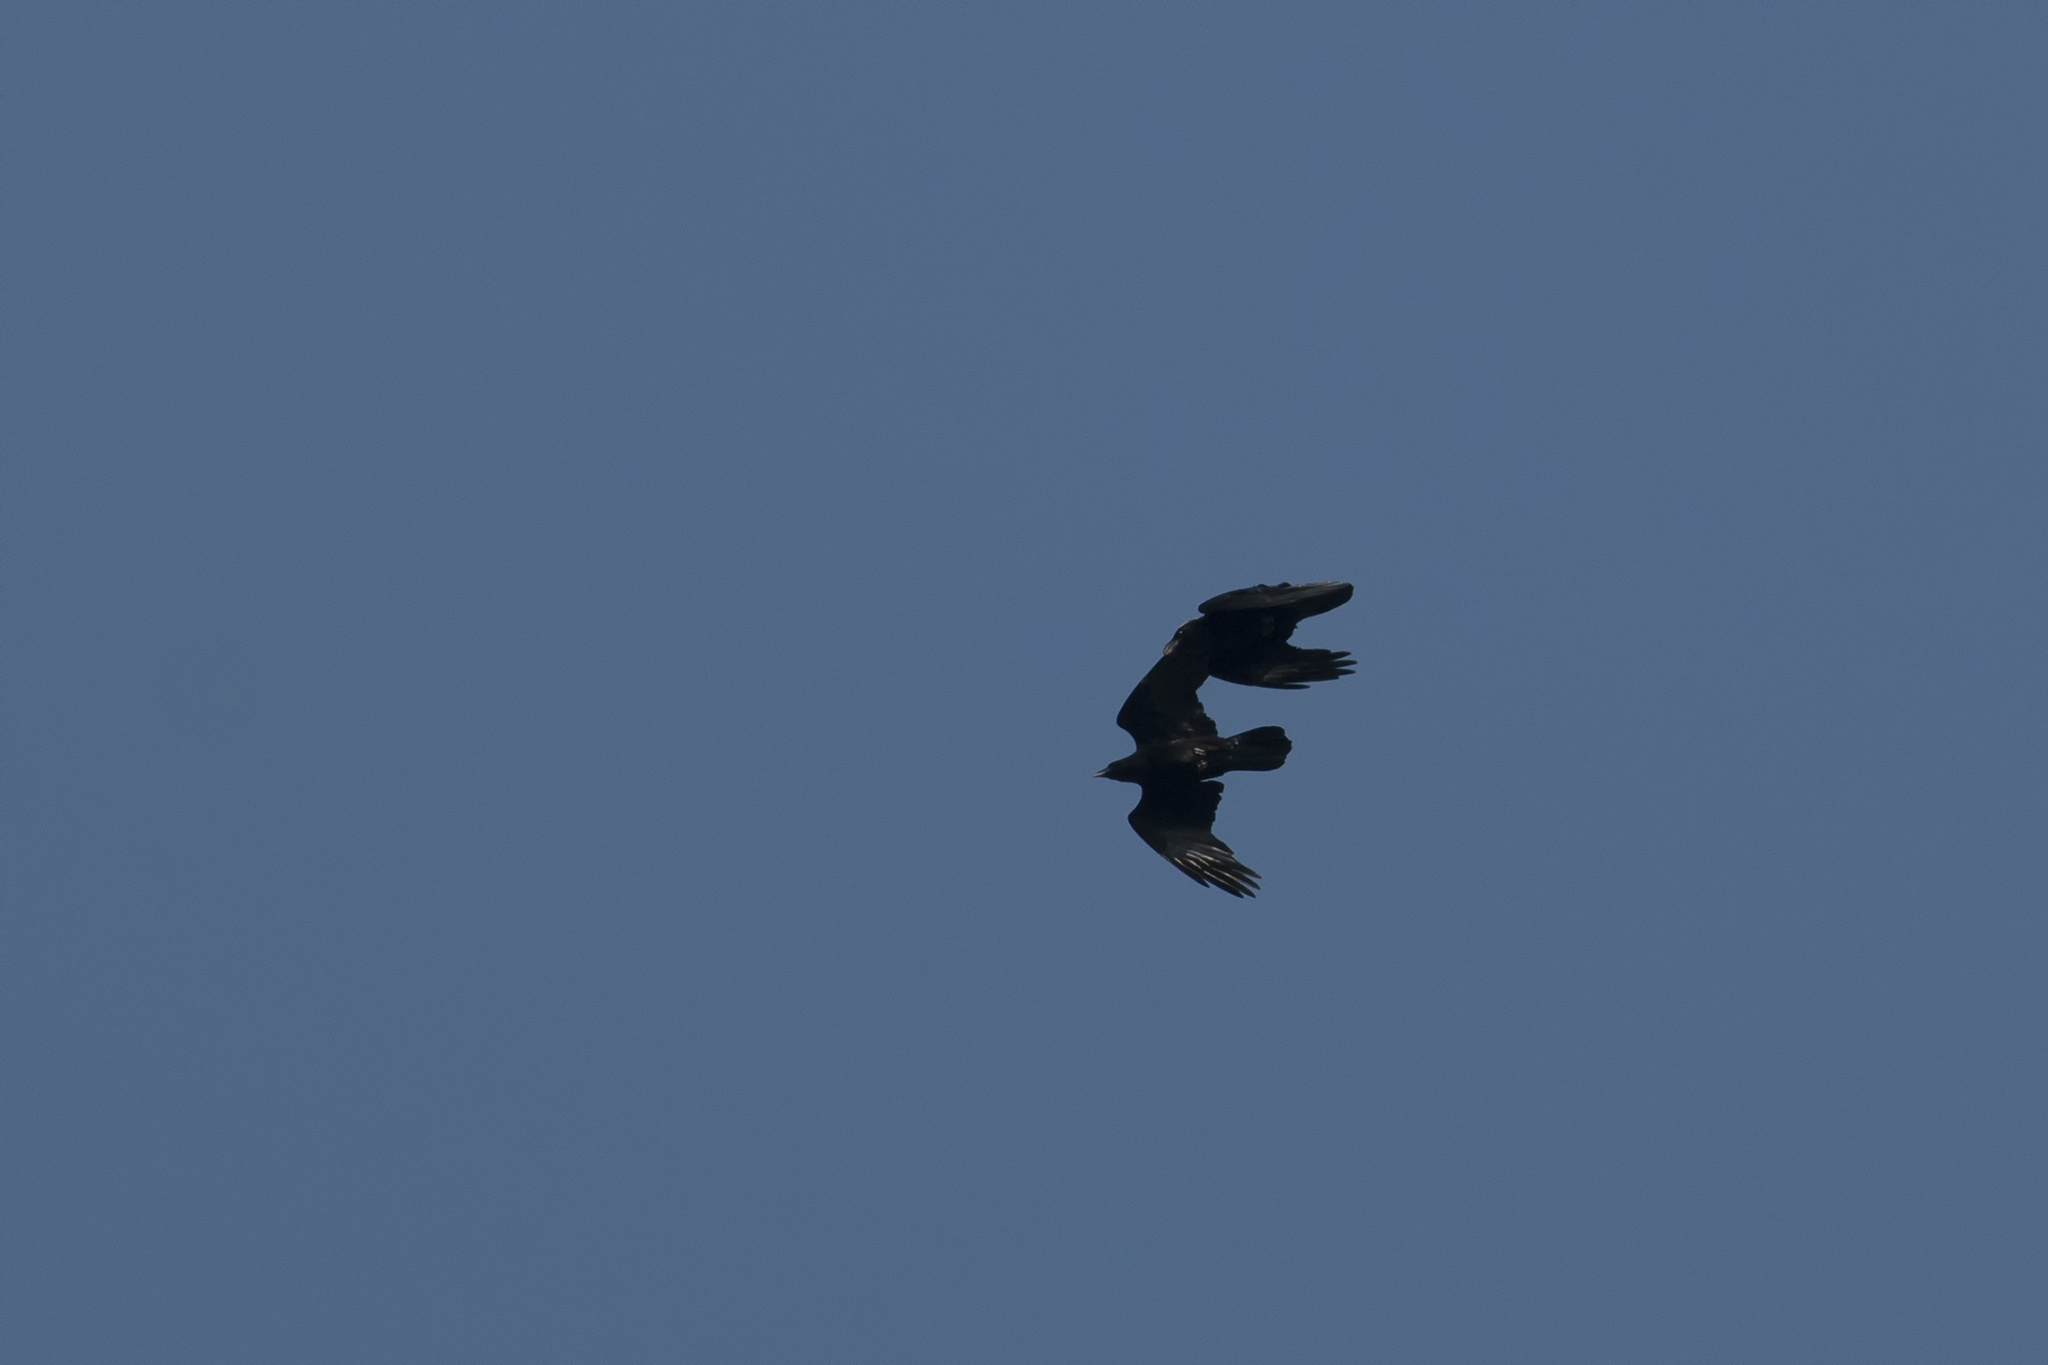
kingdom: Animalia
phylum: Chordata
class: Aves
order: Passeriformes
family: Corvidae
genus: Corvus
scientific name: Corvus corax
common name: Common raven
